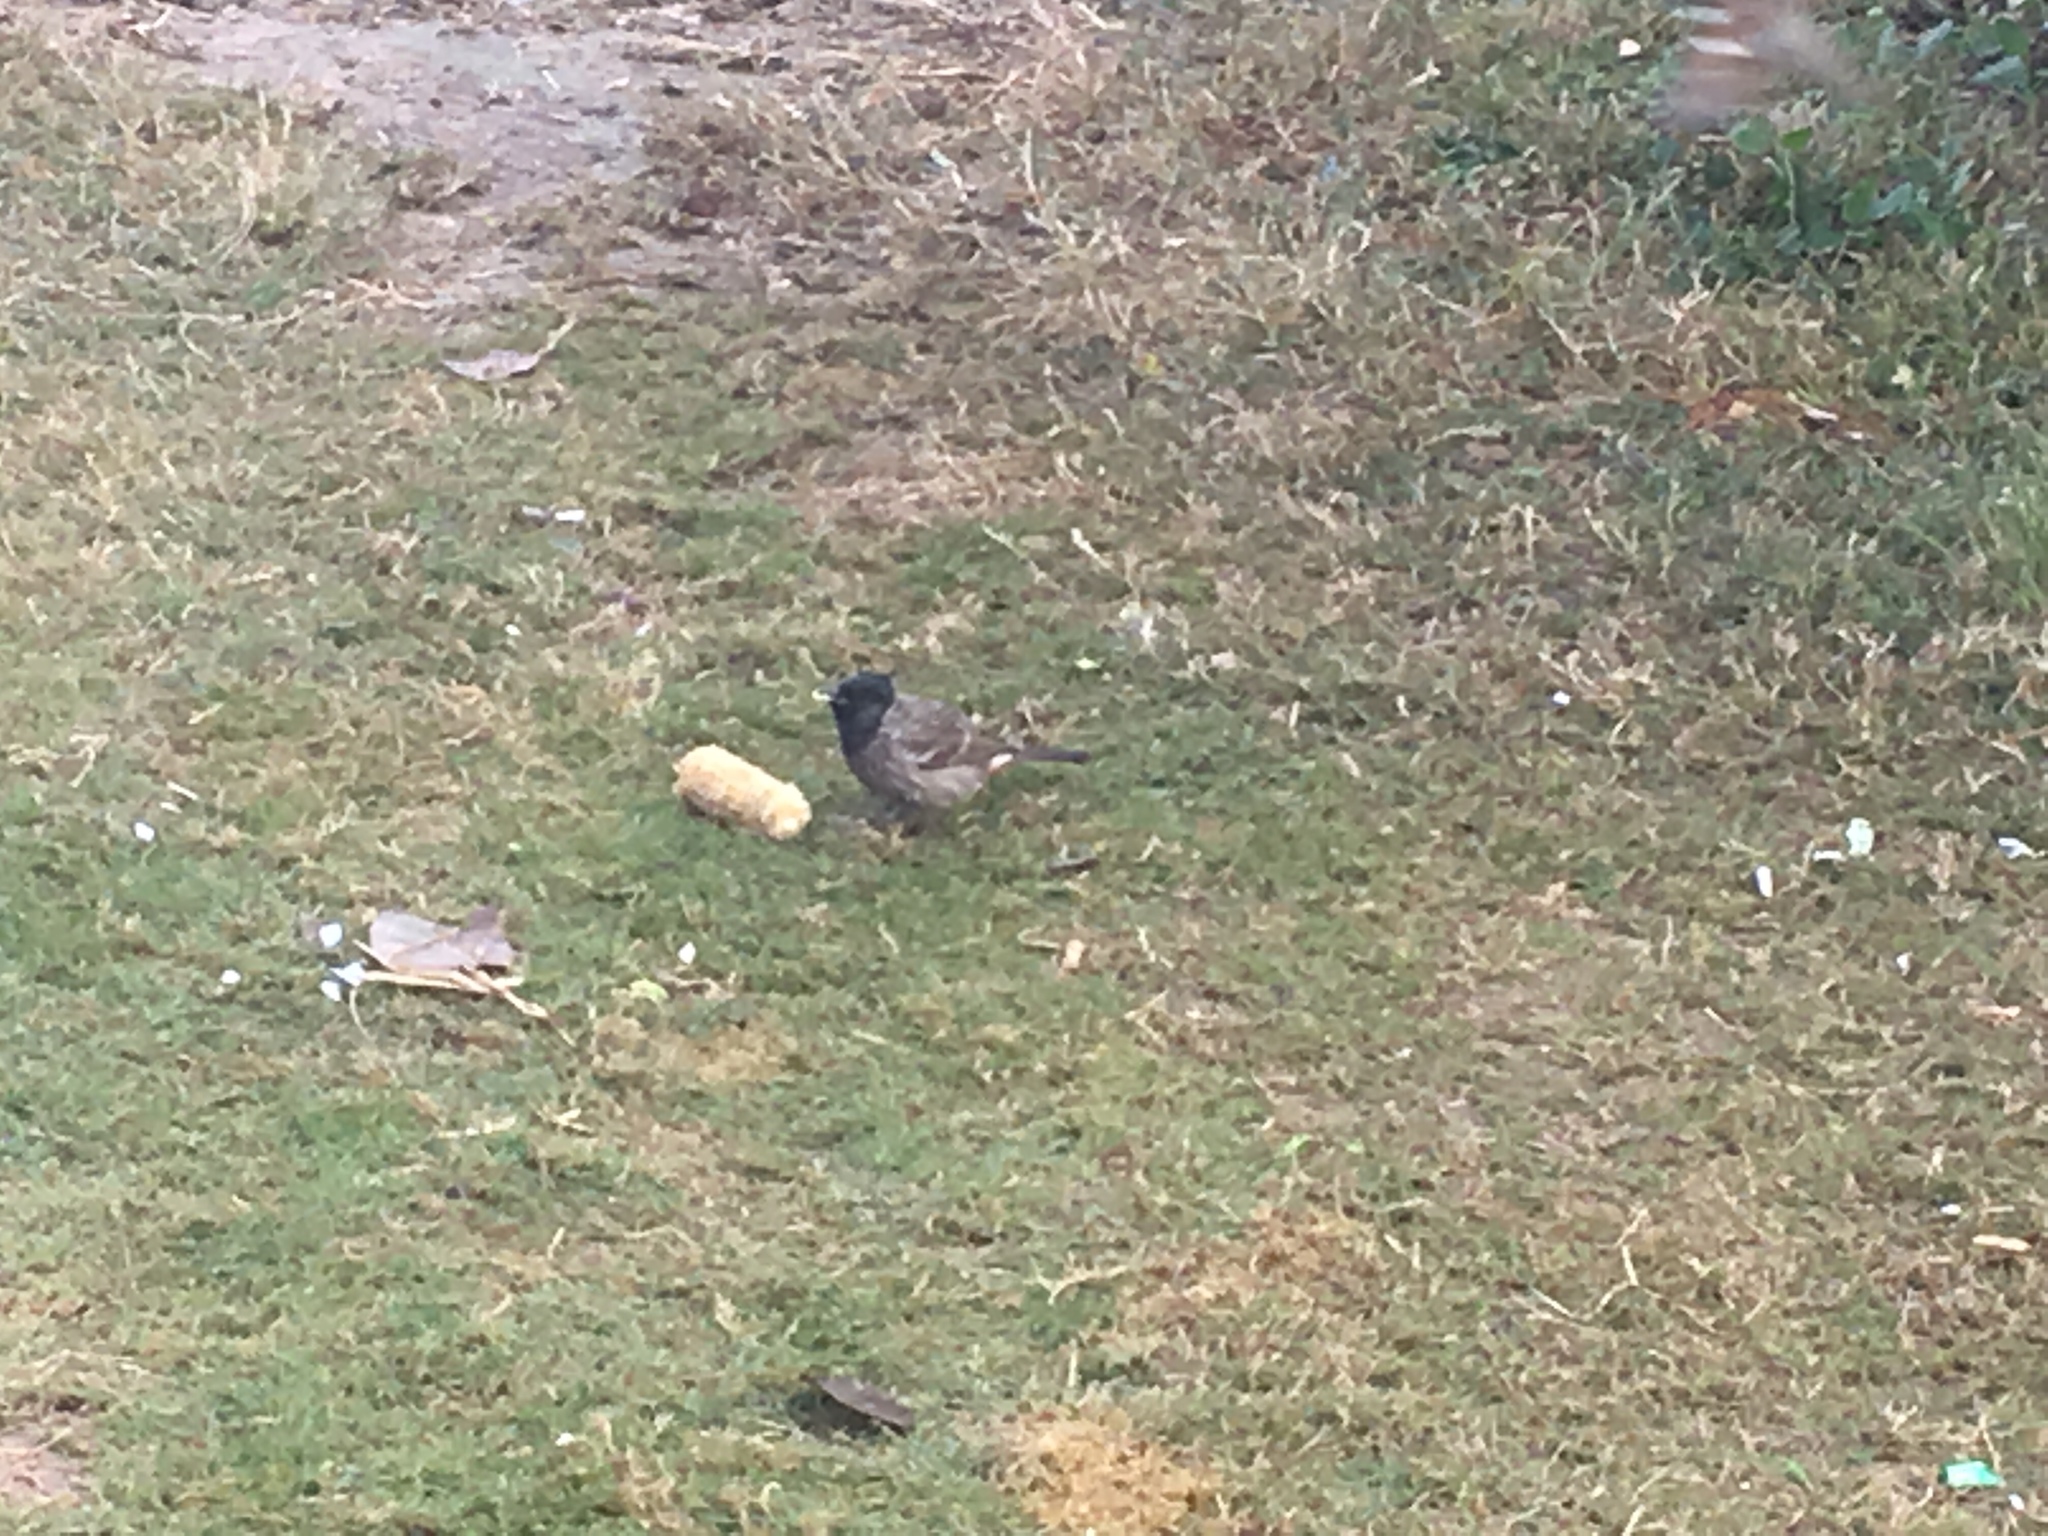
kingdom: Animalia
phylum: Chordata
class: Aves
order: Passeriformes
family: Pycnonotidae
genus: Pycnonotus
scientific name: Pycnonotus cafer
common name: Red-vented bulbul
